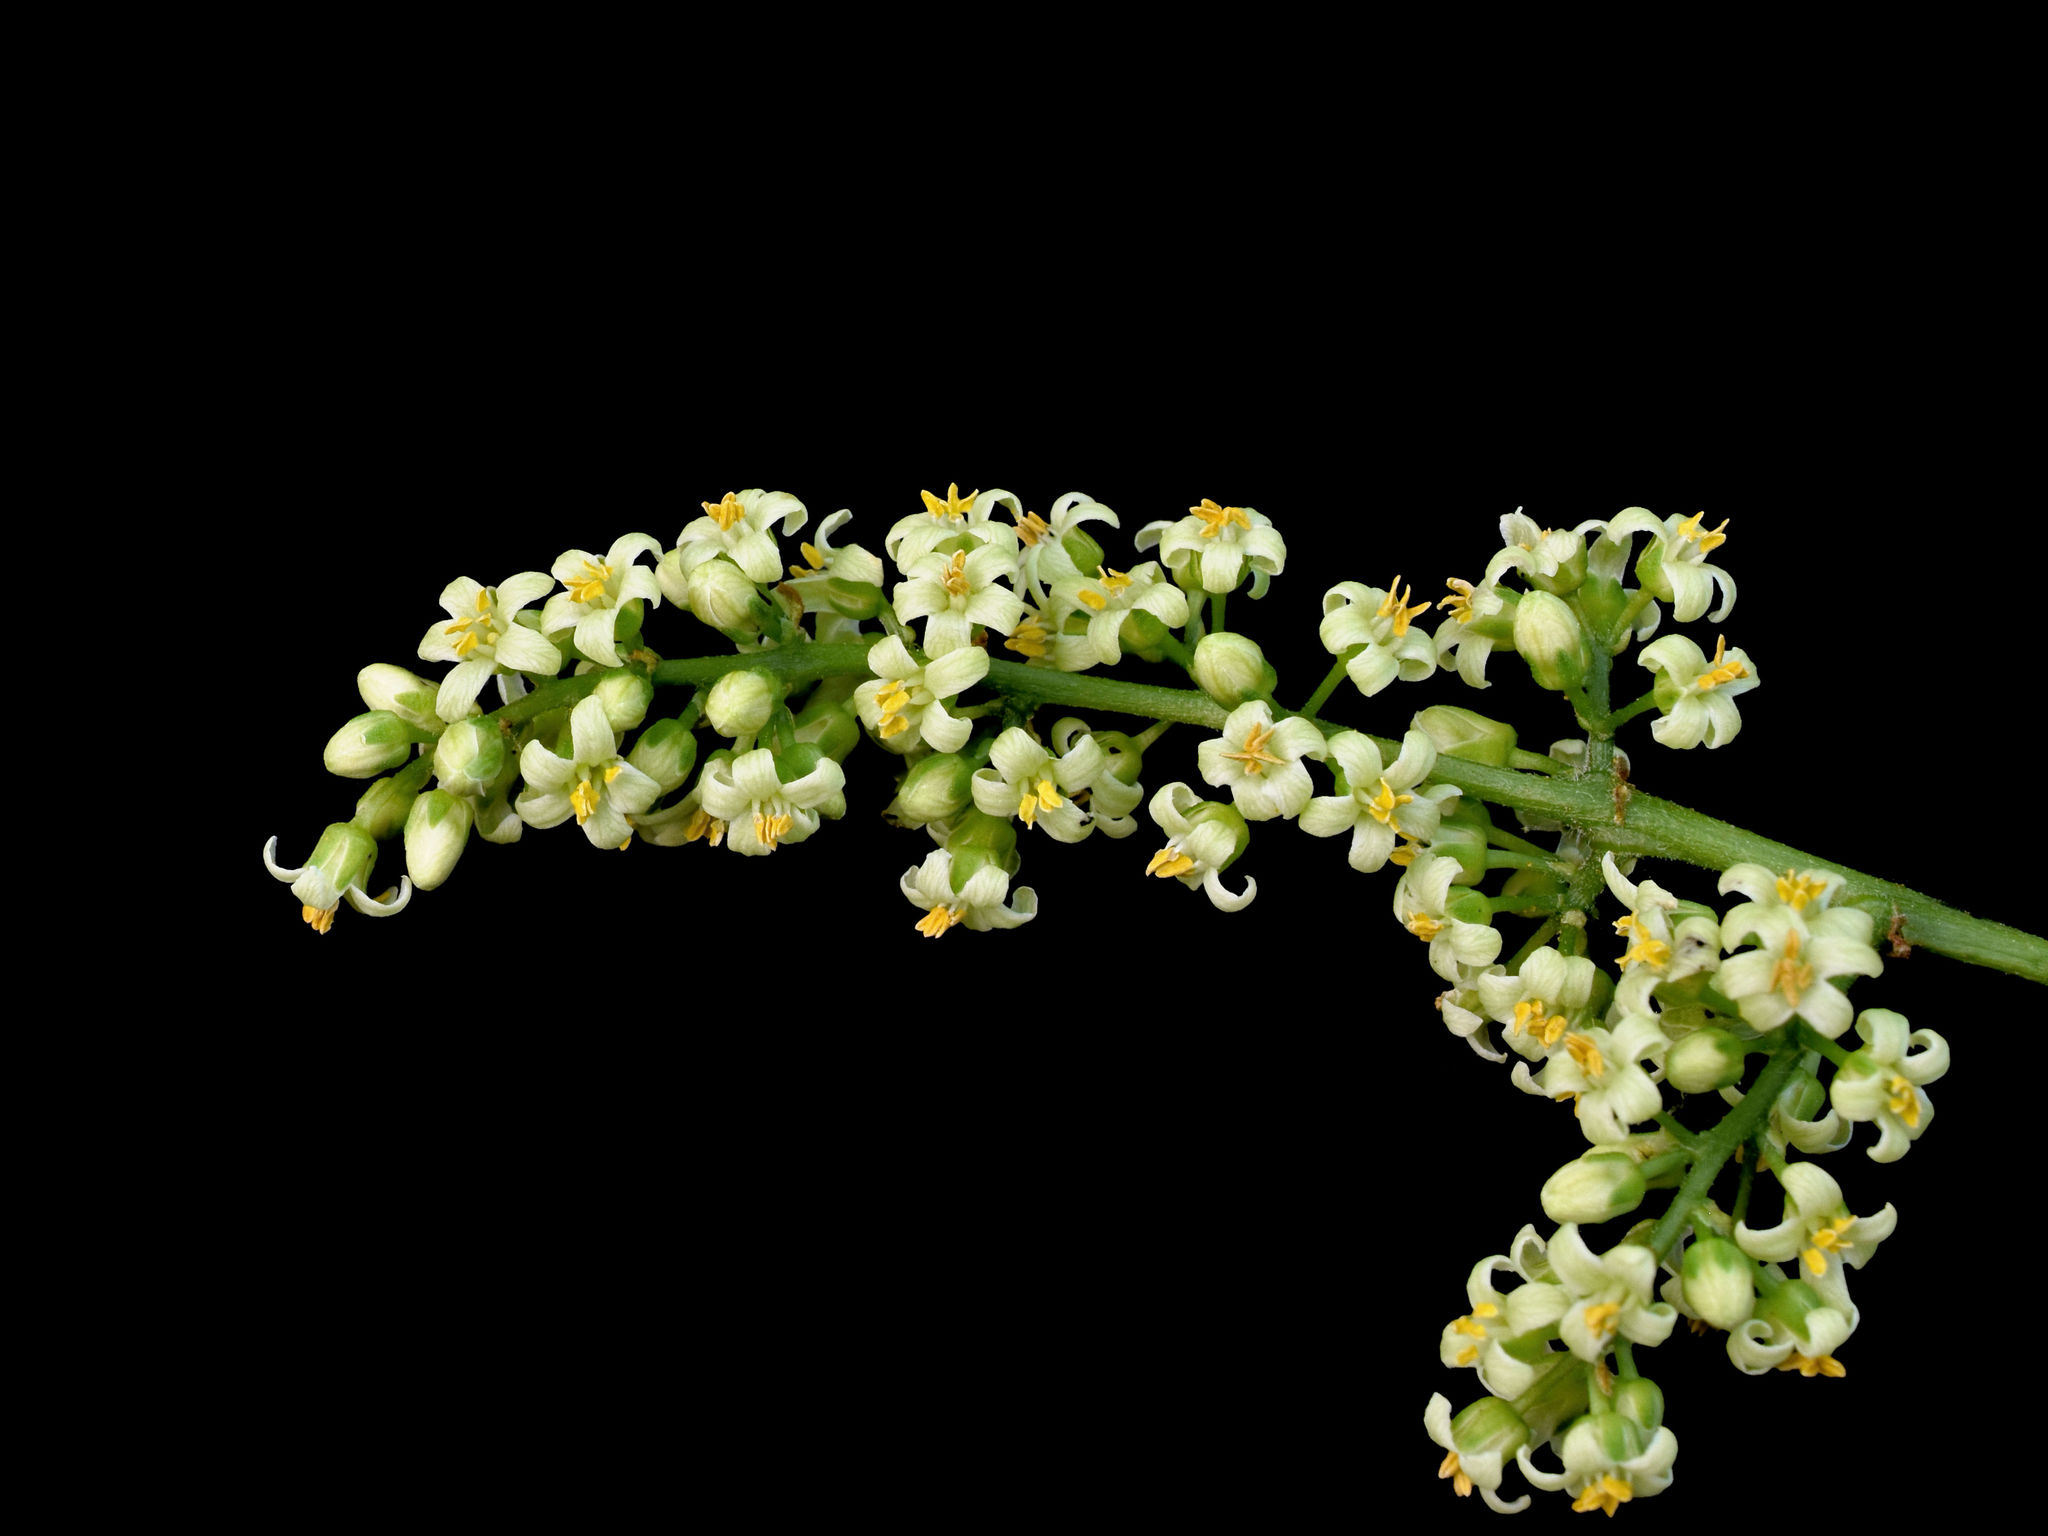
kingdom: Plantae
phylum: Tracheophyta
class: Magnoliopsida
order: Sapindales
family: Anacardiaceae
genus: Toxicodendron
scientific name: Toxicodendron rydbergii
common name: Rydberg's poison-ivy
